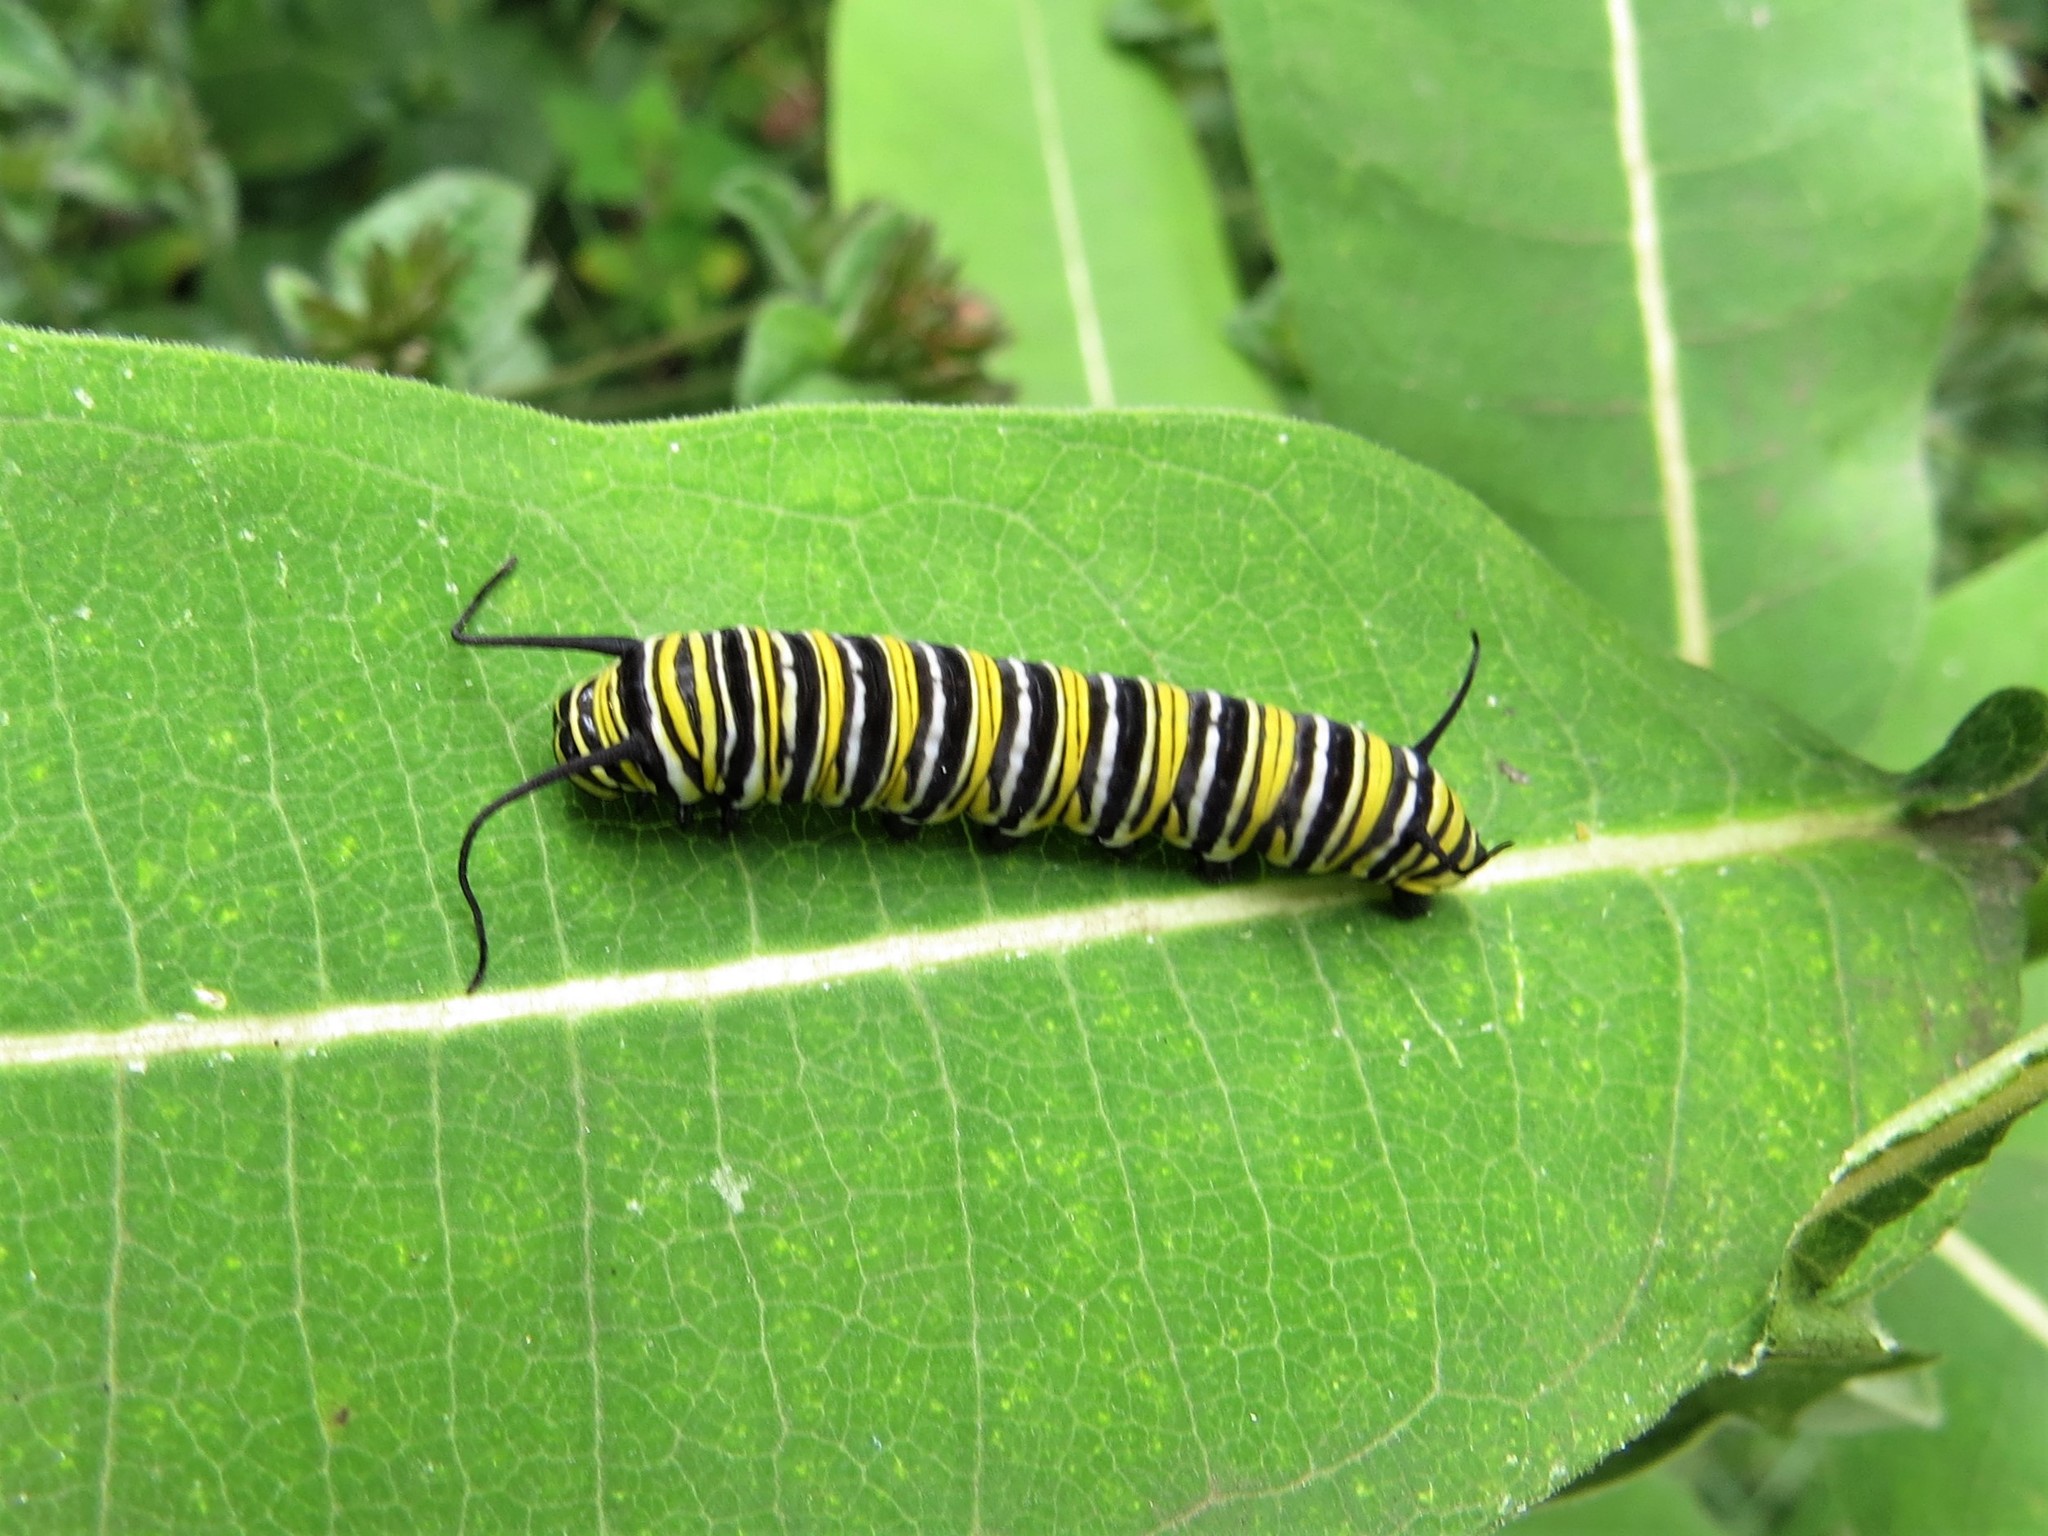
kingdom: Animalia
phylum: Arthropoda
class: Insecta
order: Lepidoptera
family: Nymphalidae
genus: Danaus
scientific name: Danaus plexippus
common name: Monarch
